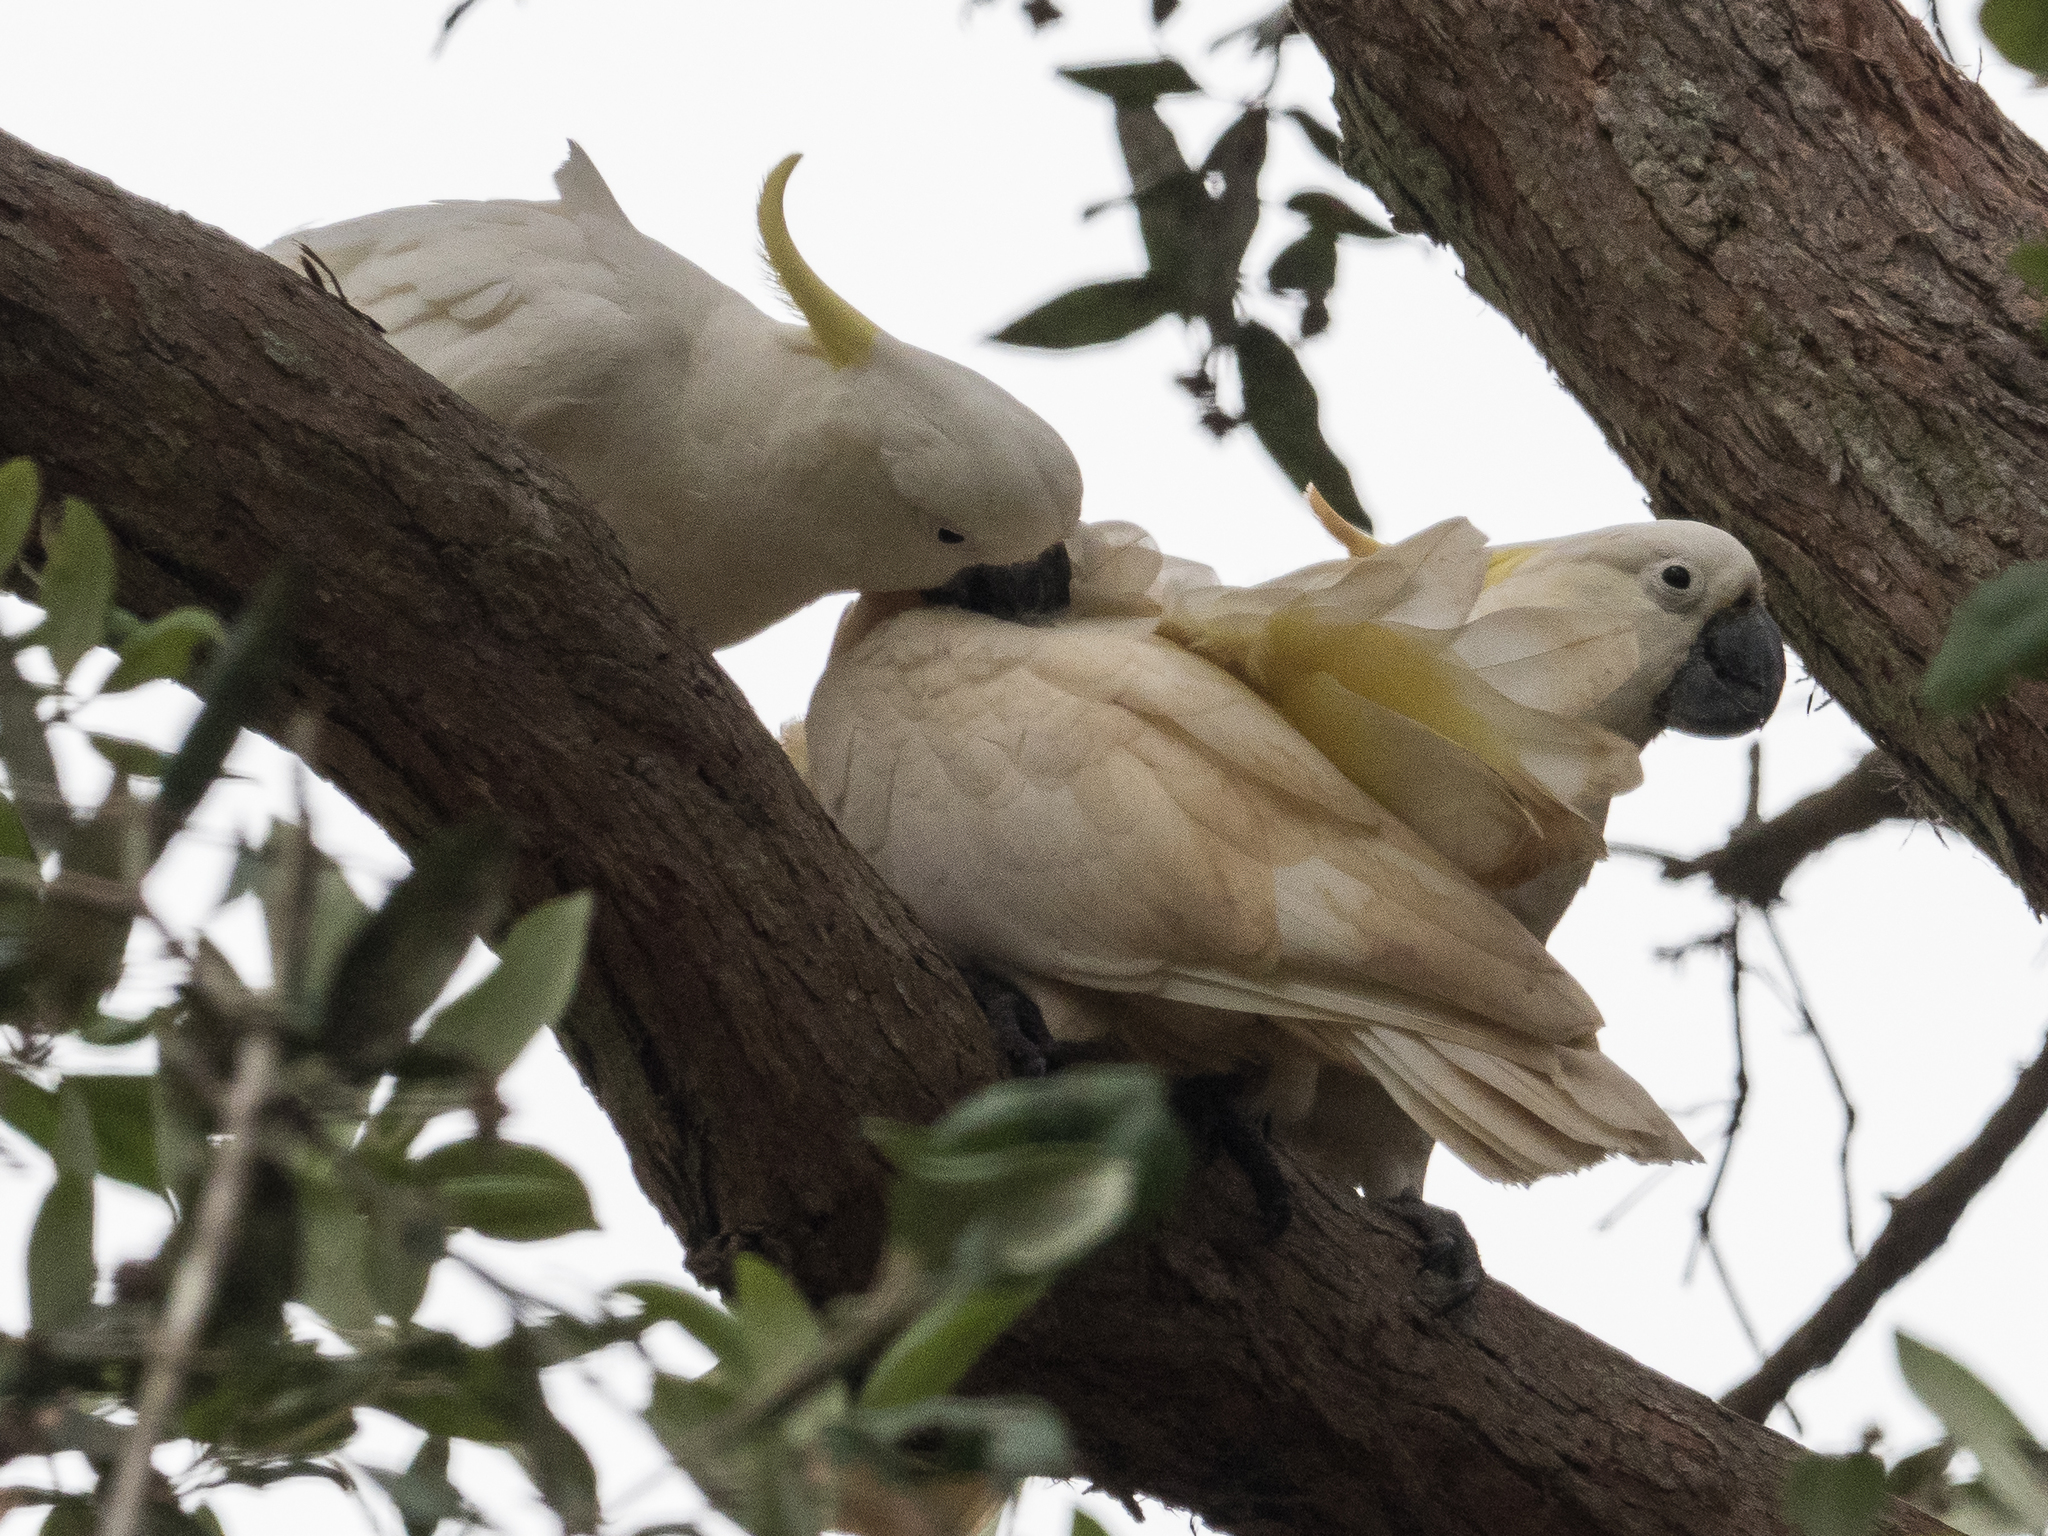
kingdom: Animalia
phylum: Chordata
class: Aves
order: Psittaciformes
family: Psittacidae
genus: Cacatua
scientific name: Cacatua galerita
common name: Sulphur-crested cockatoo
